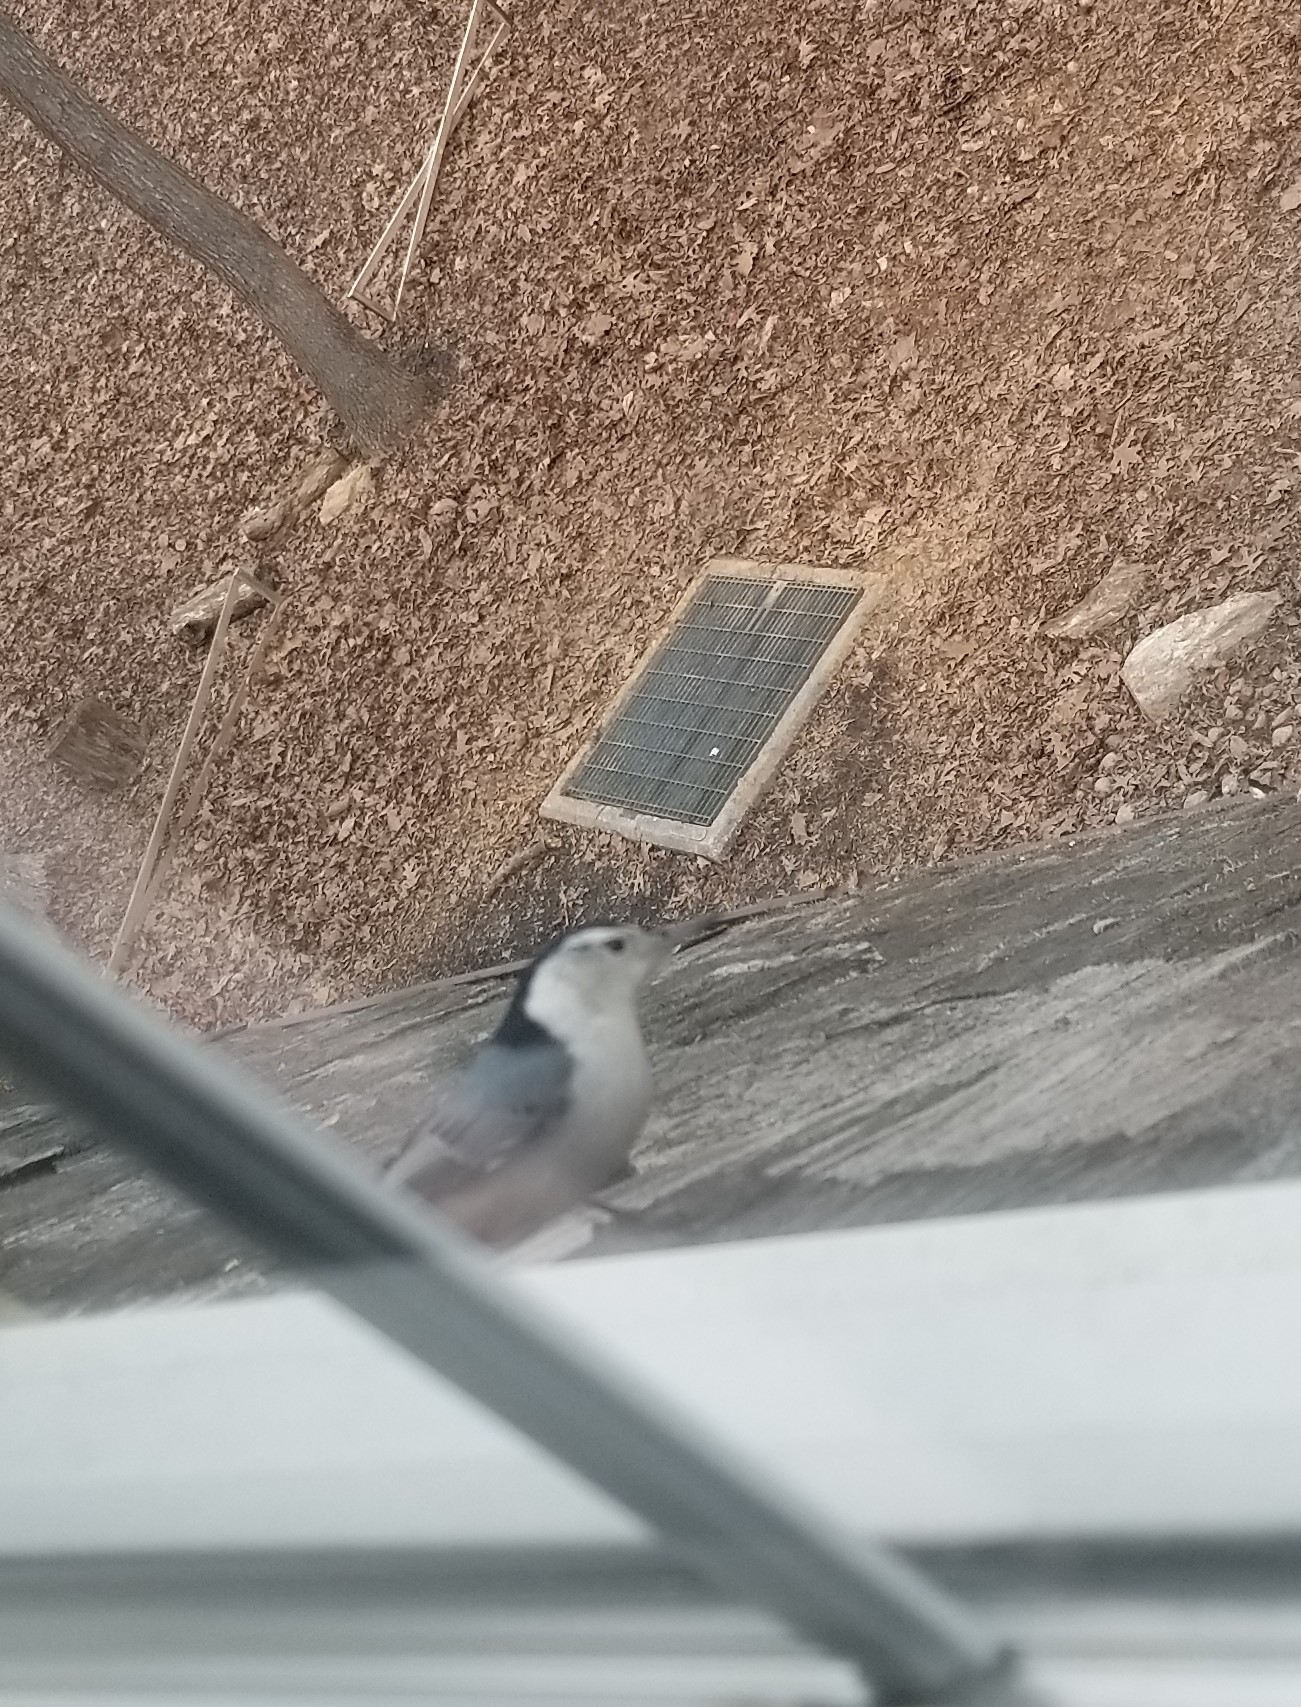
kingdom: Animalia
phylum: Chordata
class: Aves
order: Passeriformes
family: Sittidae
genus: Sitta
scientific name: Sitta carolinensis
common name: White-breasted nuthatch
